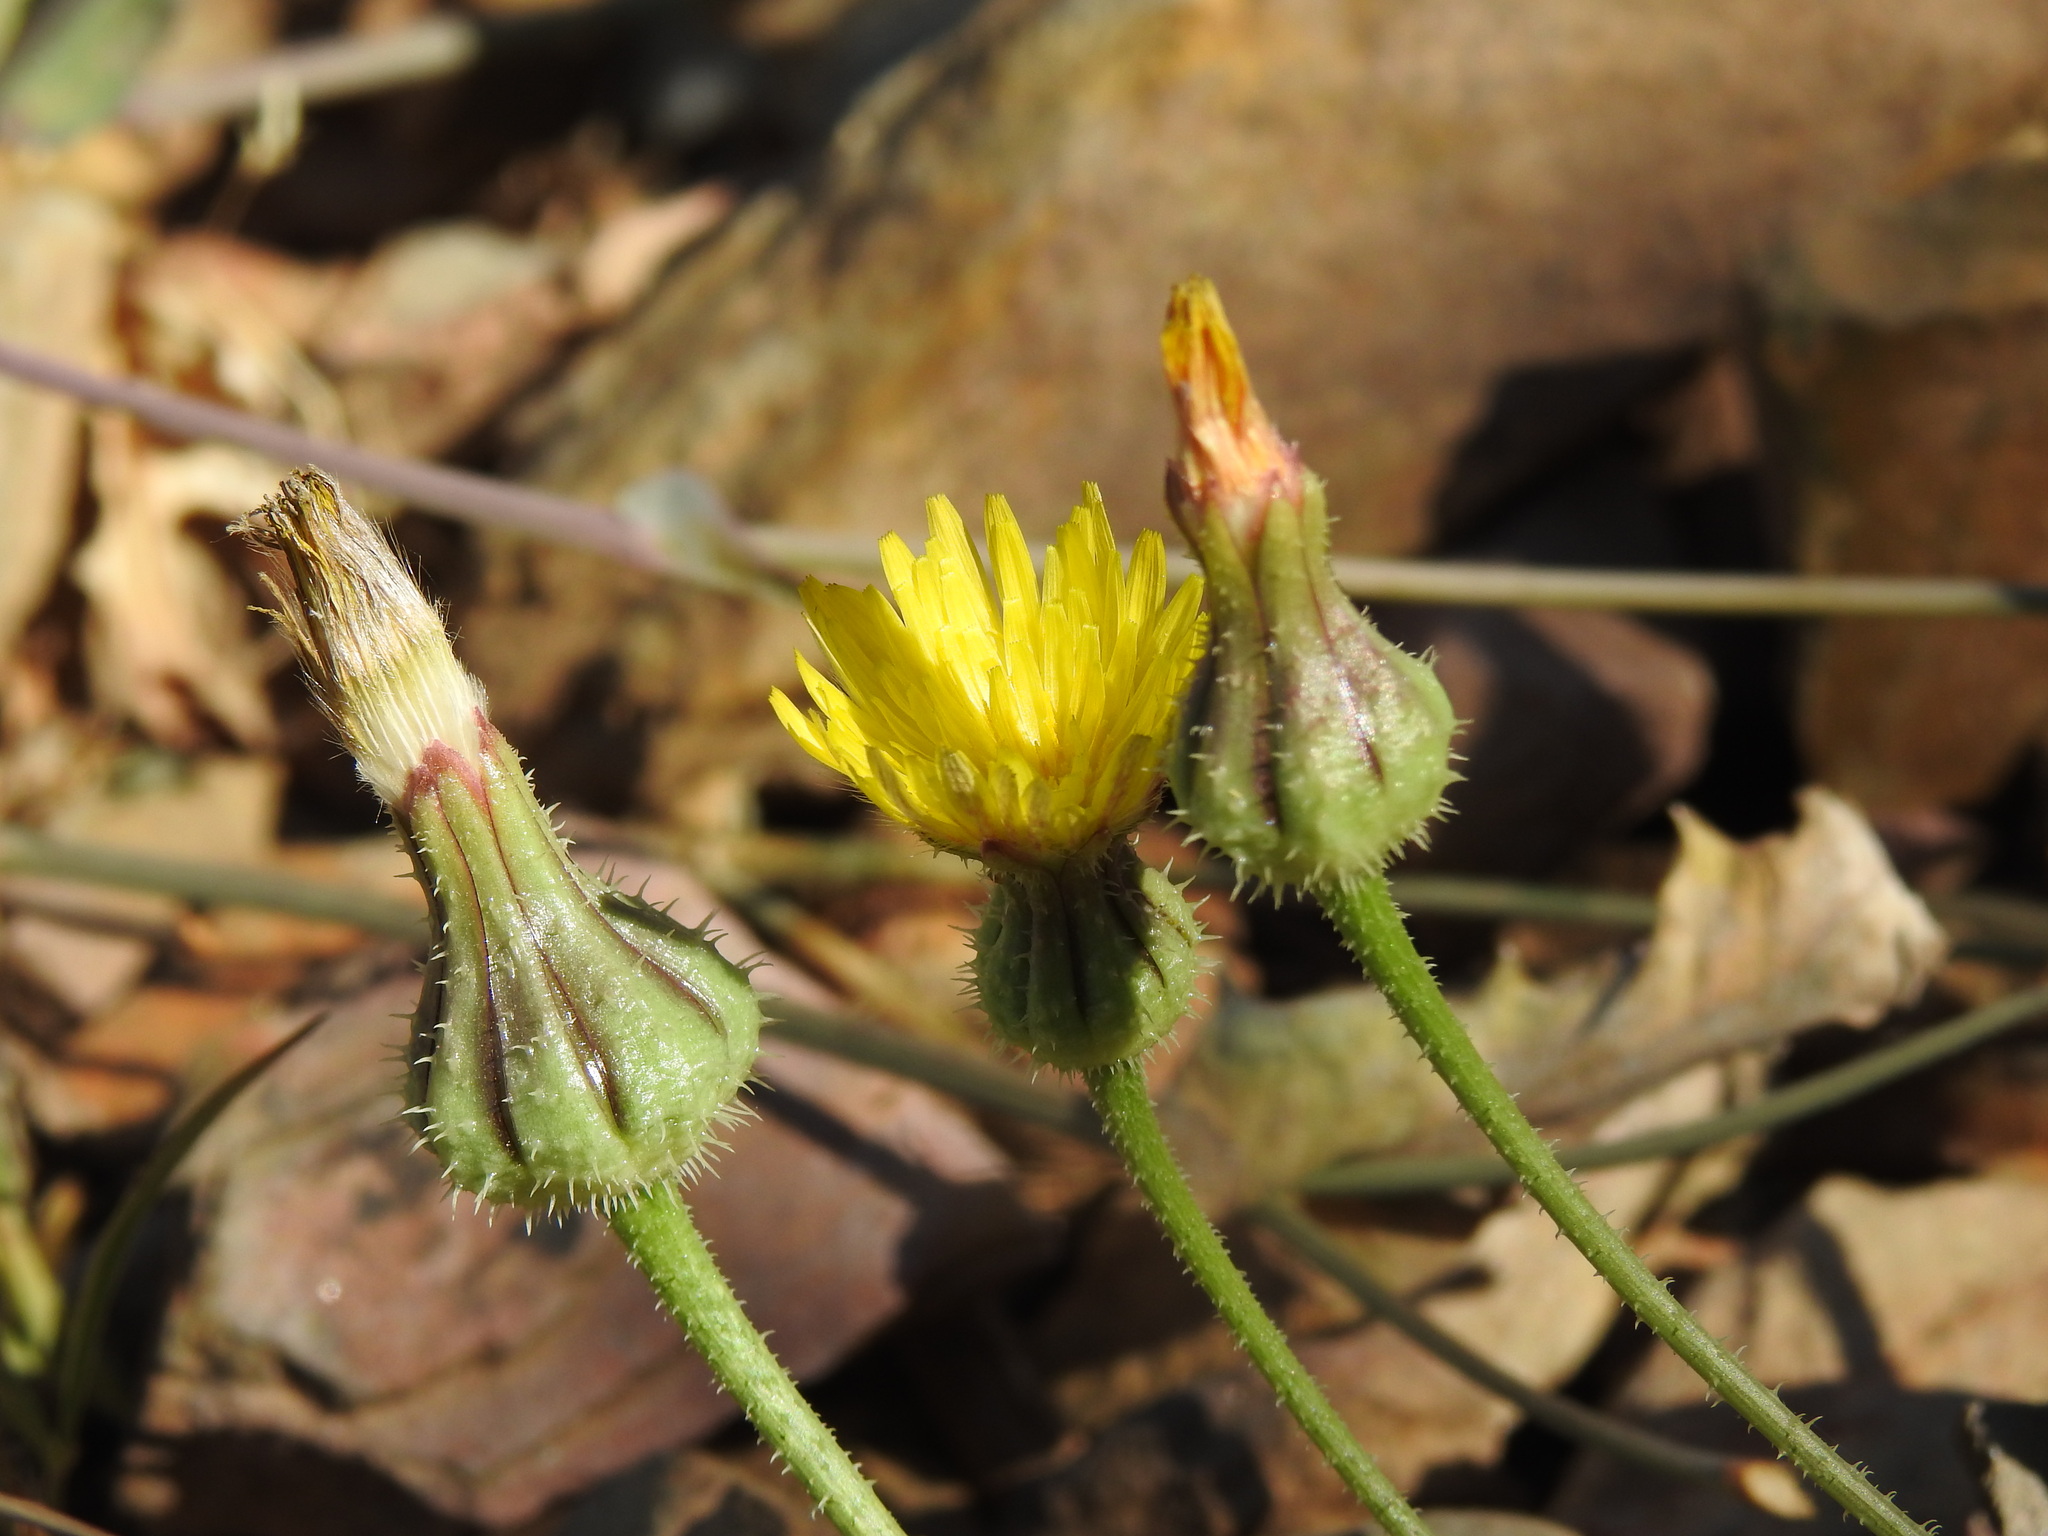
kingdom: Plantae
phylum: Tracheophyta
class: Magnoliopsida
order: Asterales
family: Asteraceae
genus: Urospermum
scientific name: Urospermum picroides
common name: False hawkbit
